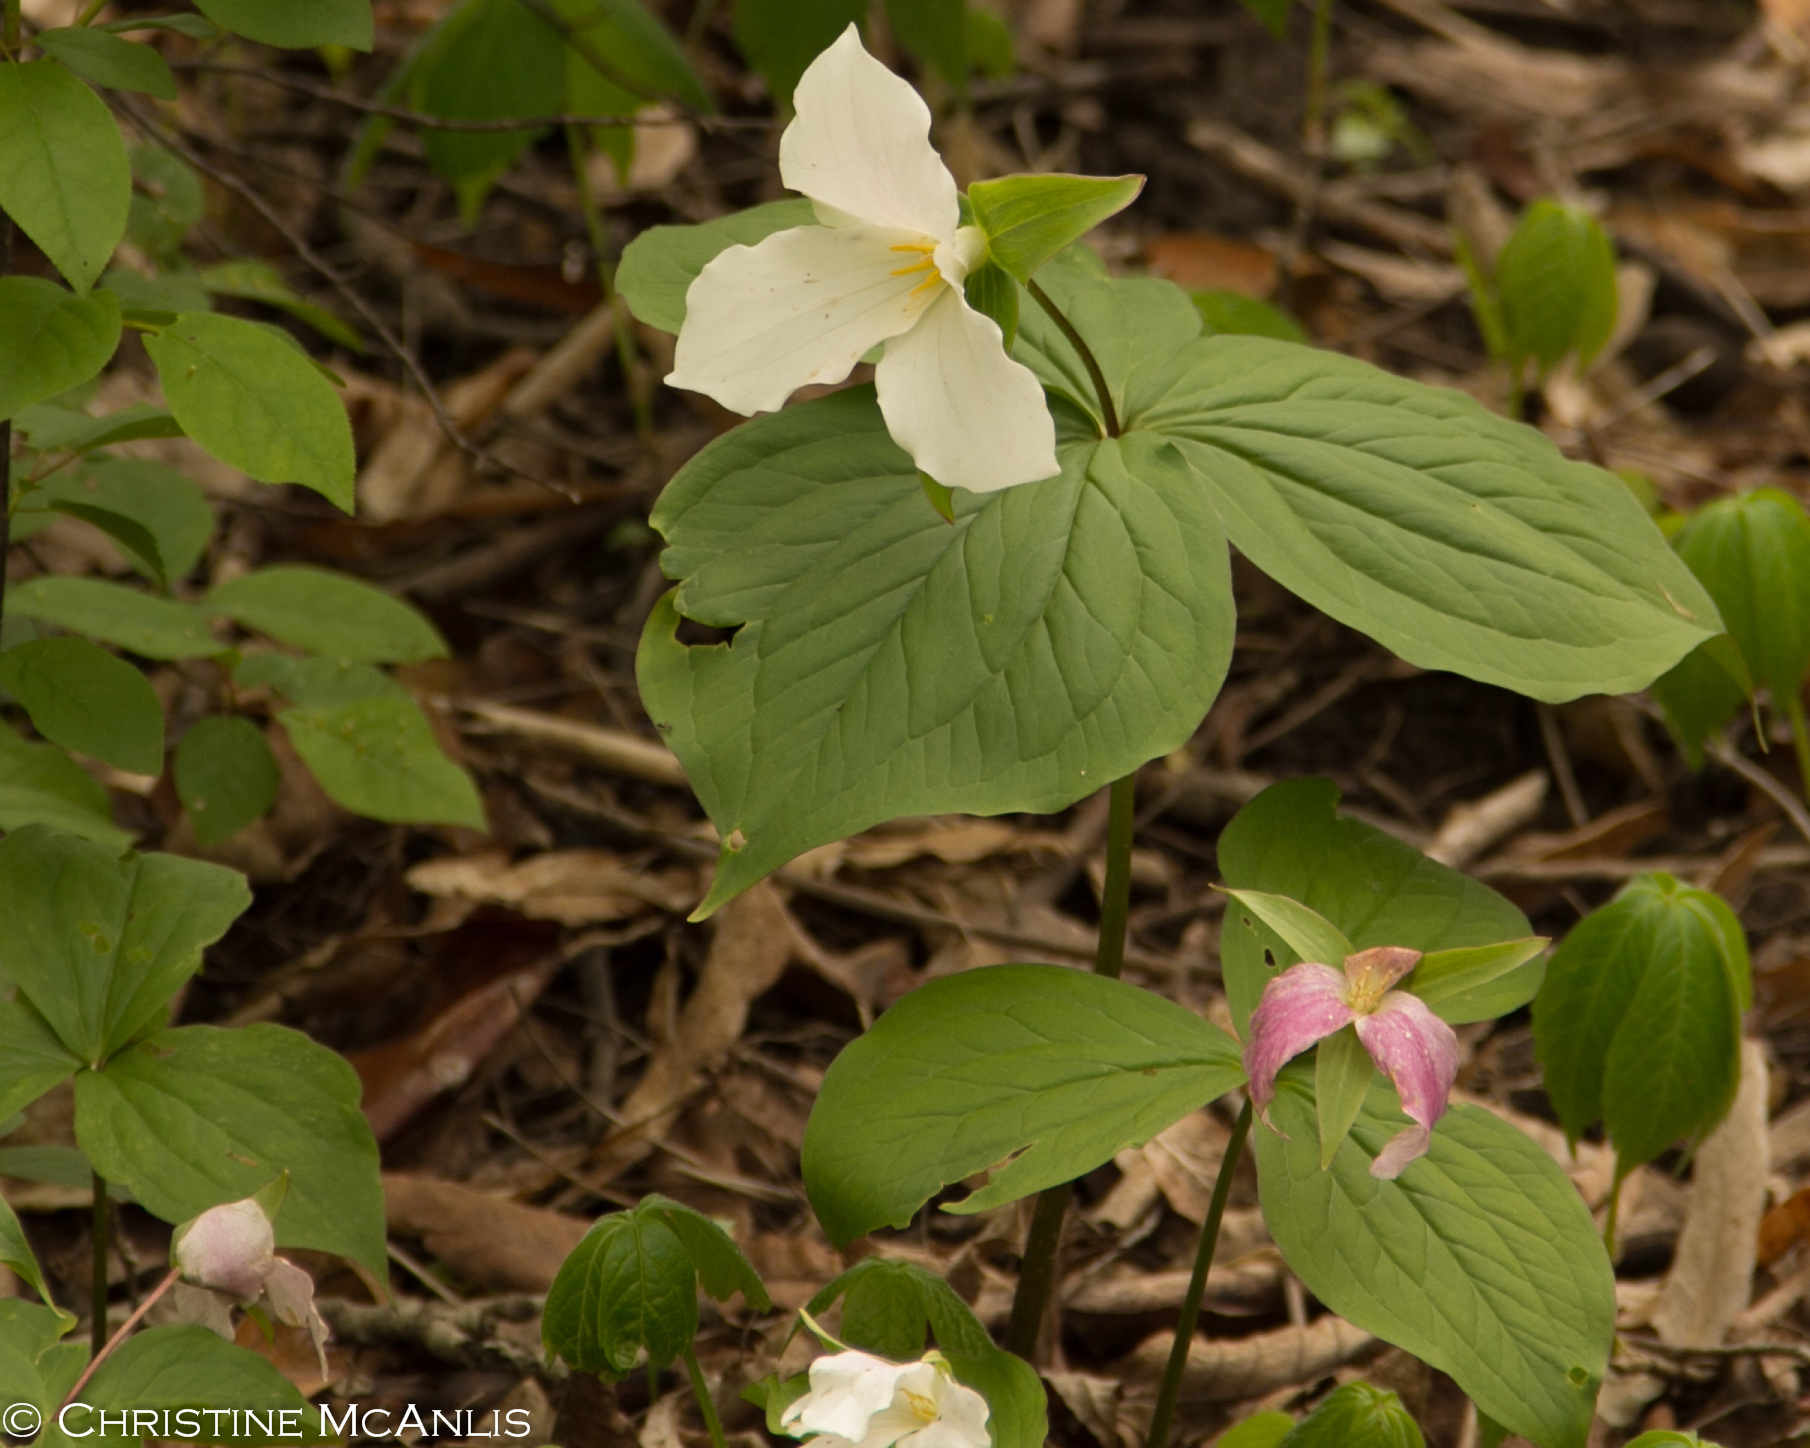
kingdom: Plantae
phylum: Tracheophyta
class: Liliopsida
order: Liliales
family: Melanthiaceae
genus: Trillium
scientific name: Trillium grandiflorum
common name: Great white trillium
